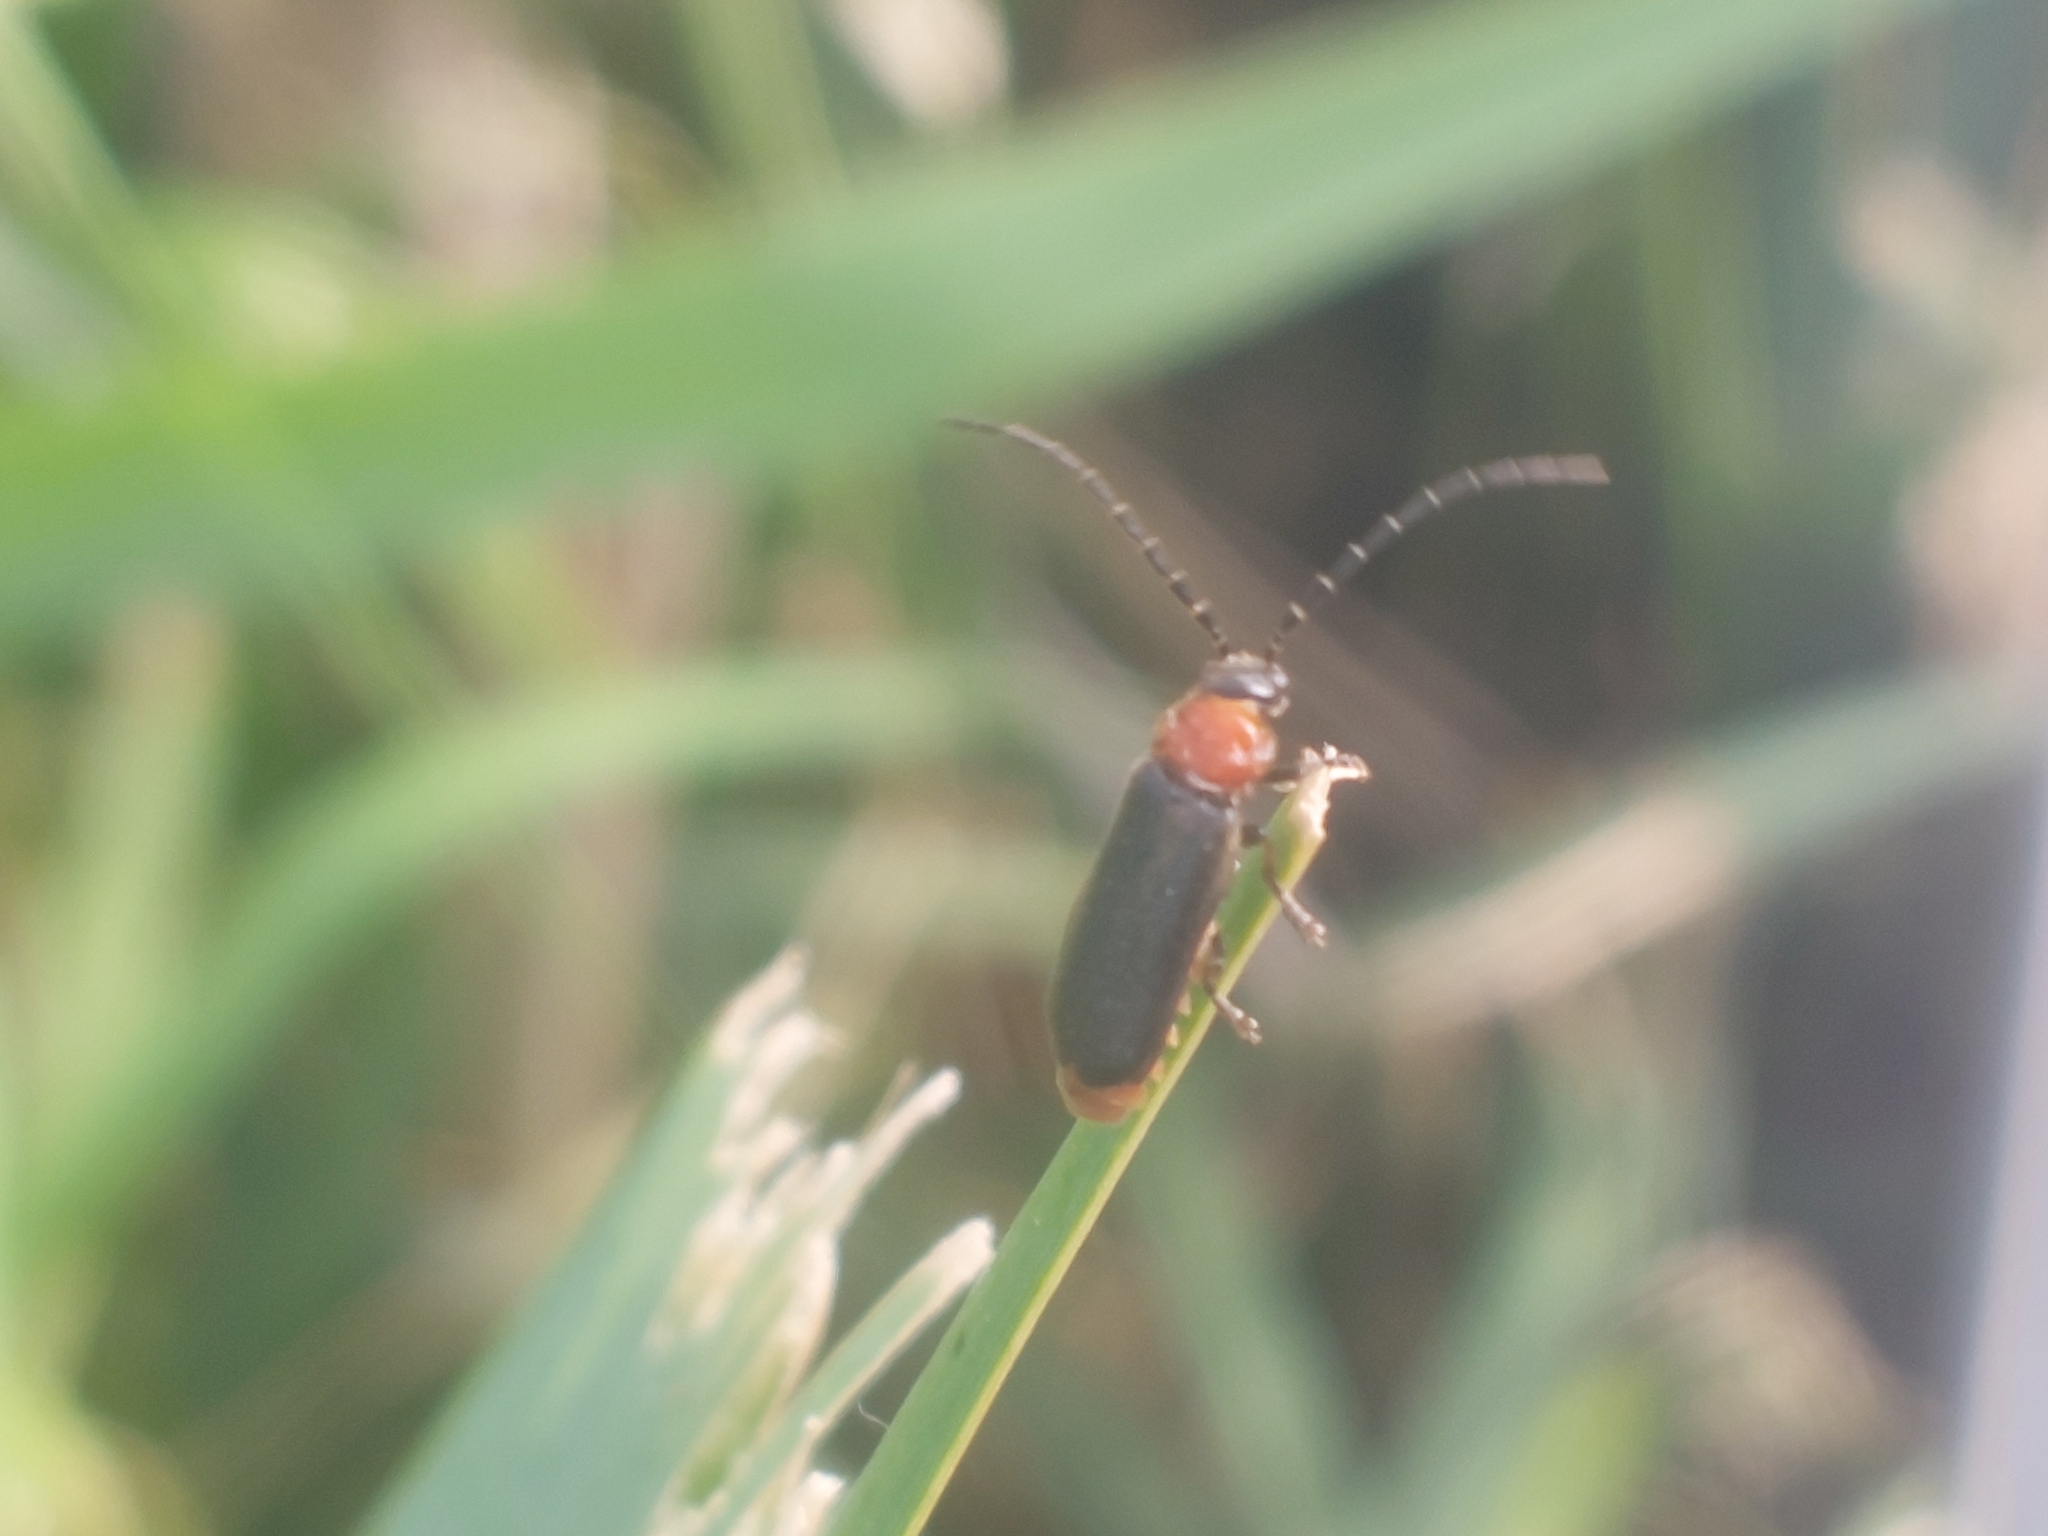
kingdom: Animalia
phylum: Arthropoda
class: Insecta
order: Coleoptera
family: Cantharidae
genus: Crudosilis
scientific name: Crudosilis ruficollis
